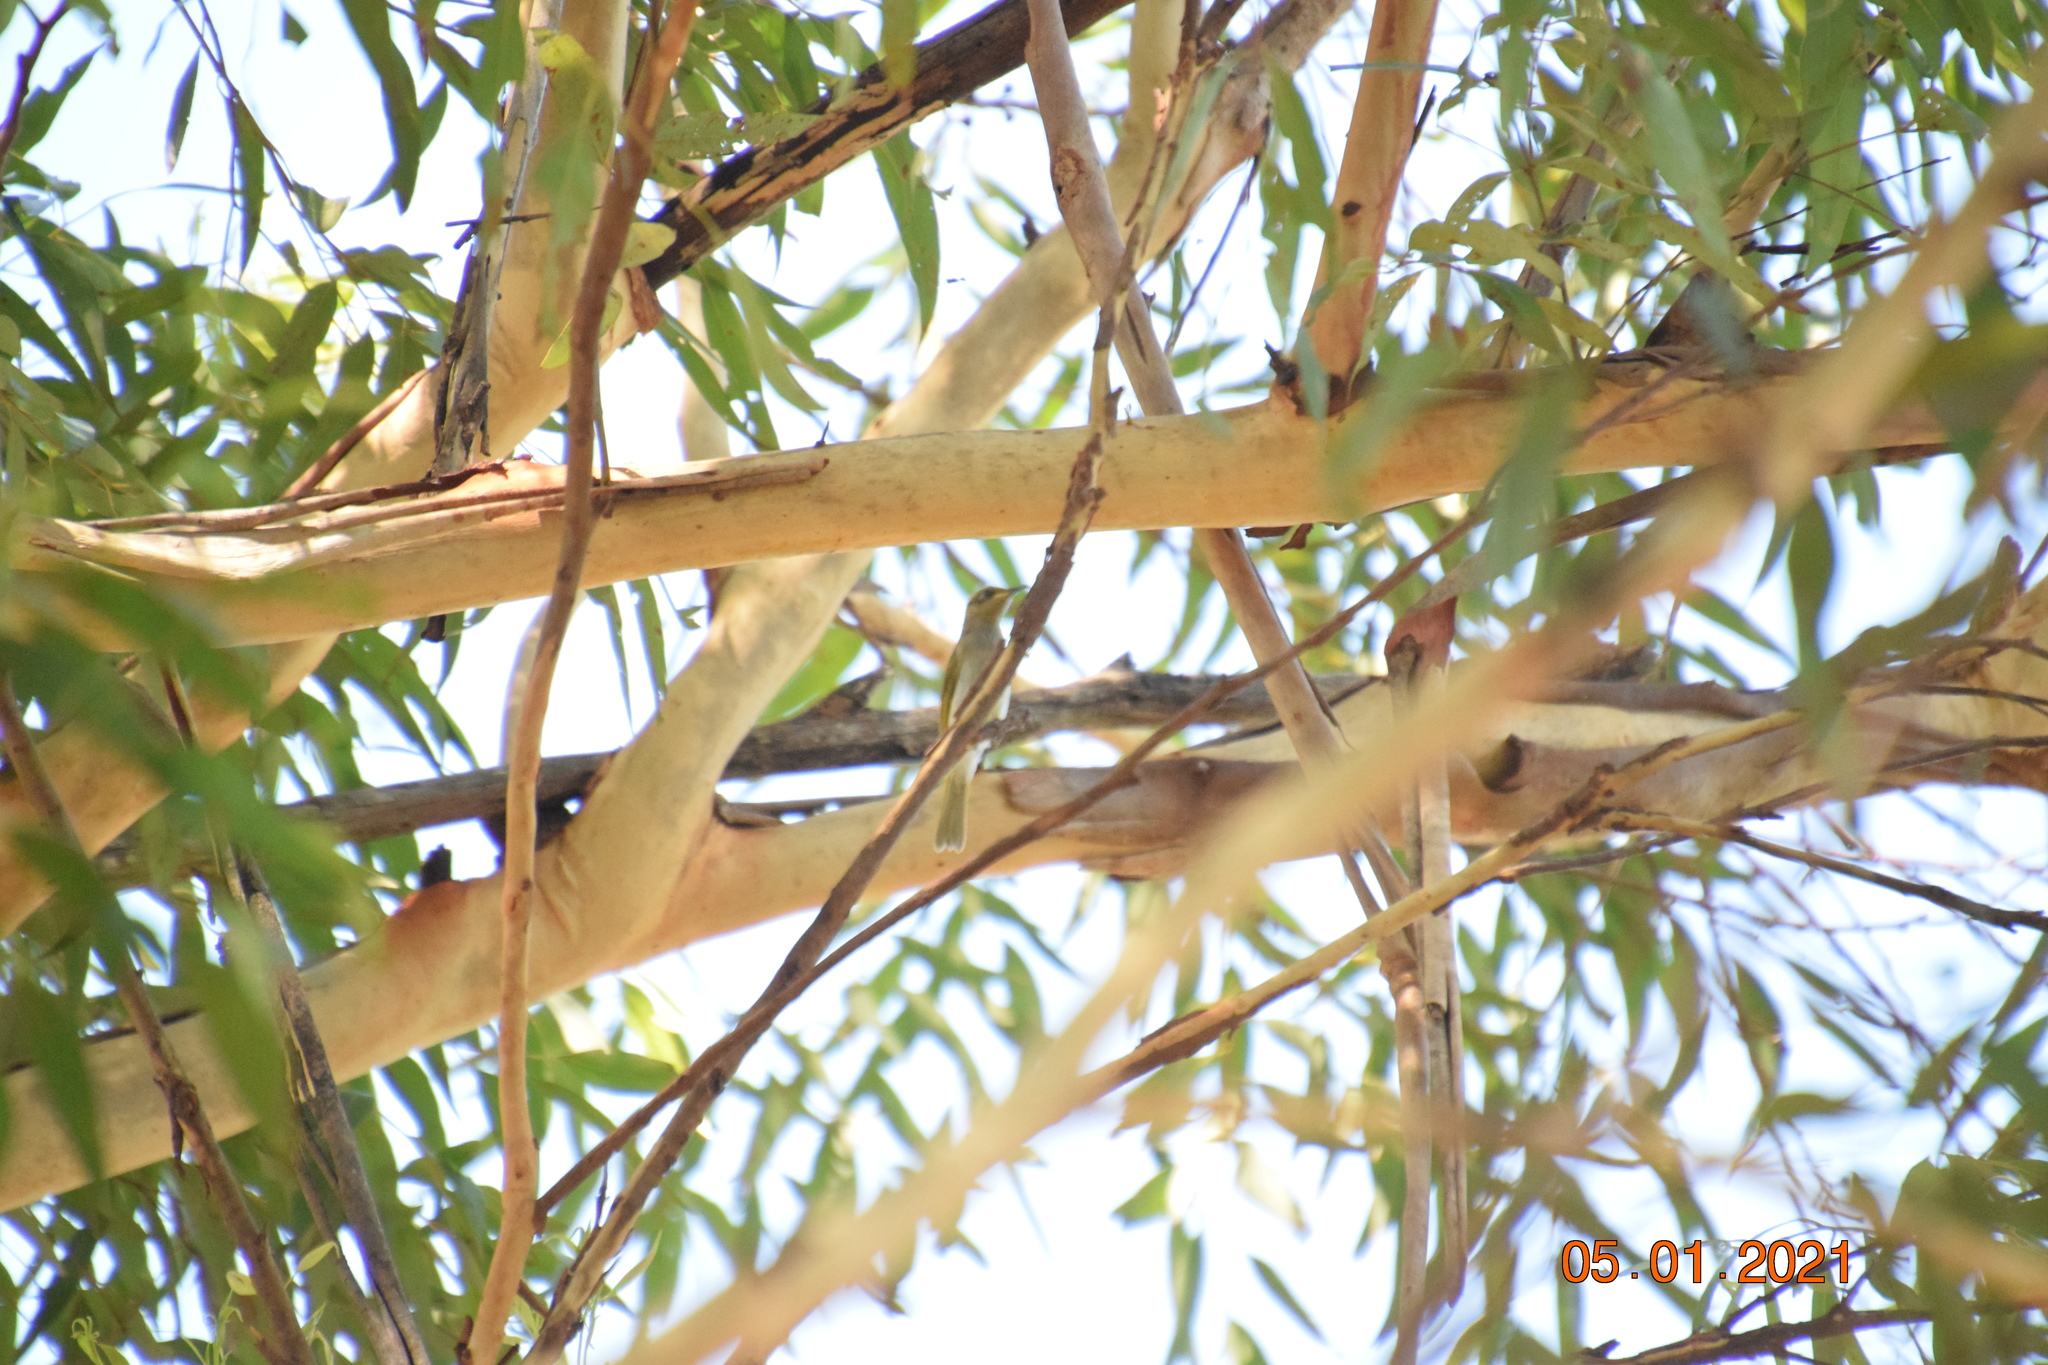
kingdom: Animalia
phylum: Chordata
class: Aves
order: Passeriformes
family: Meliphagidae
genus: Lichmera
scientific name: Lichmera indistincta
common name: Brown honeyeater
